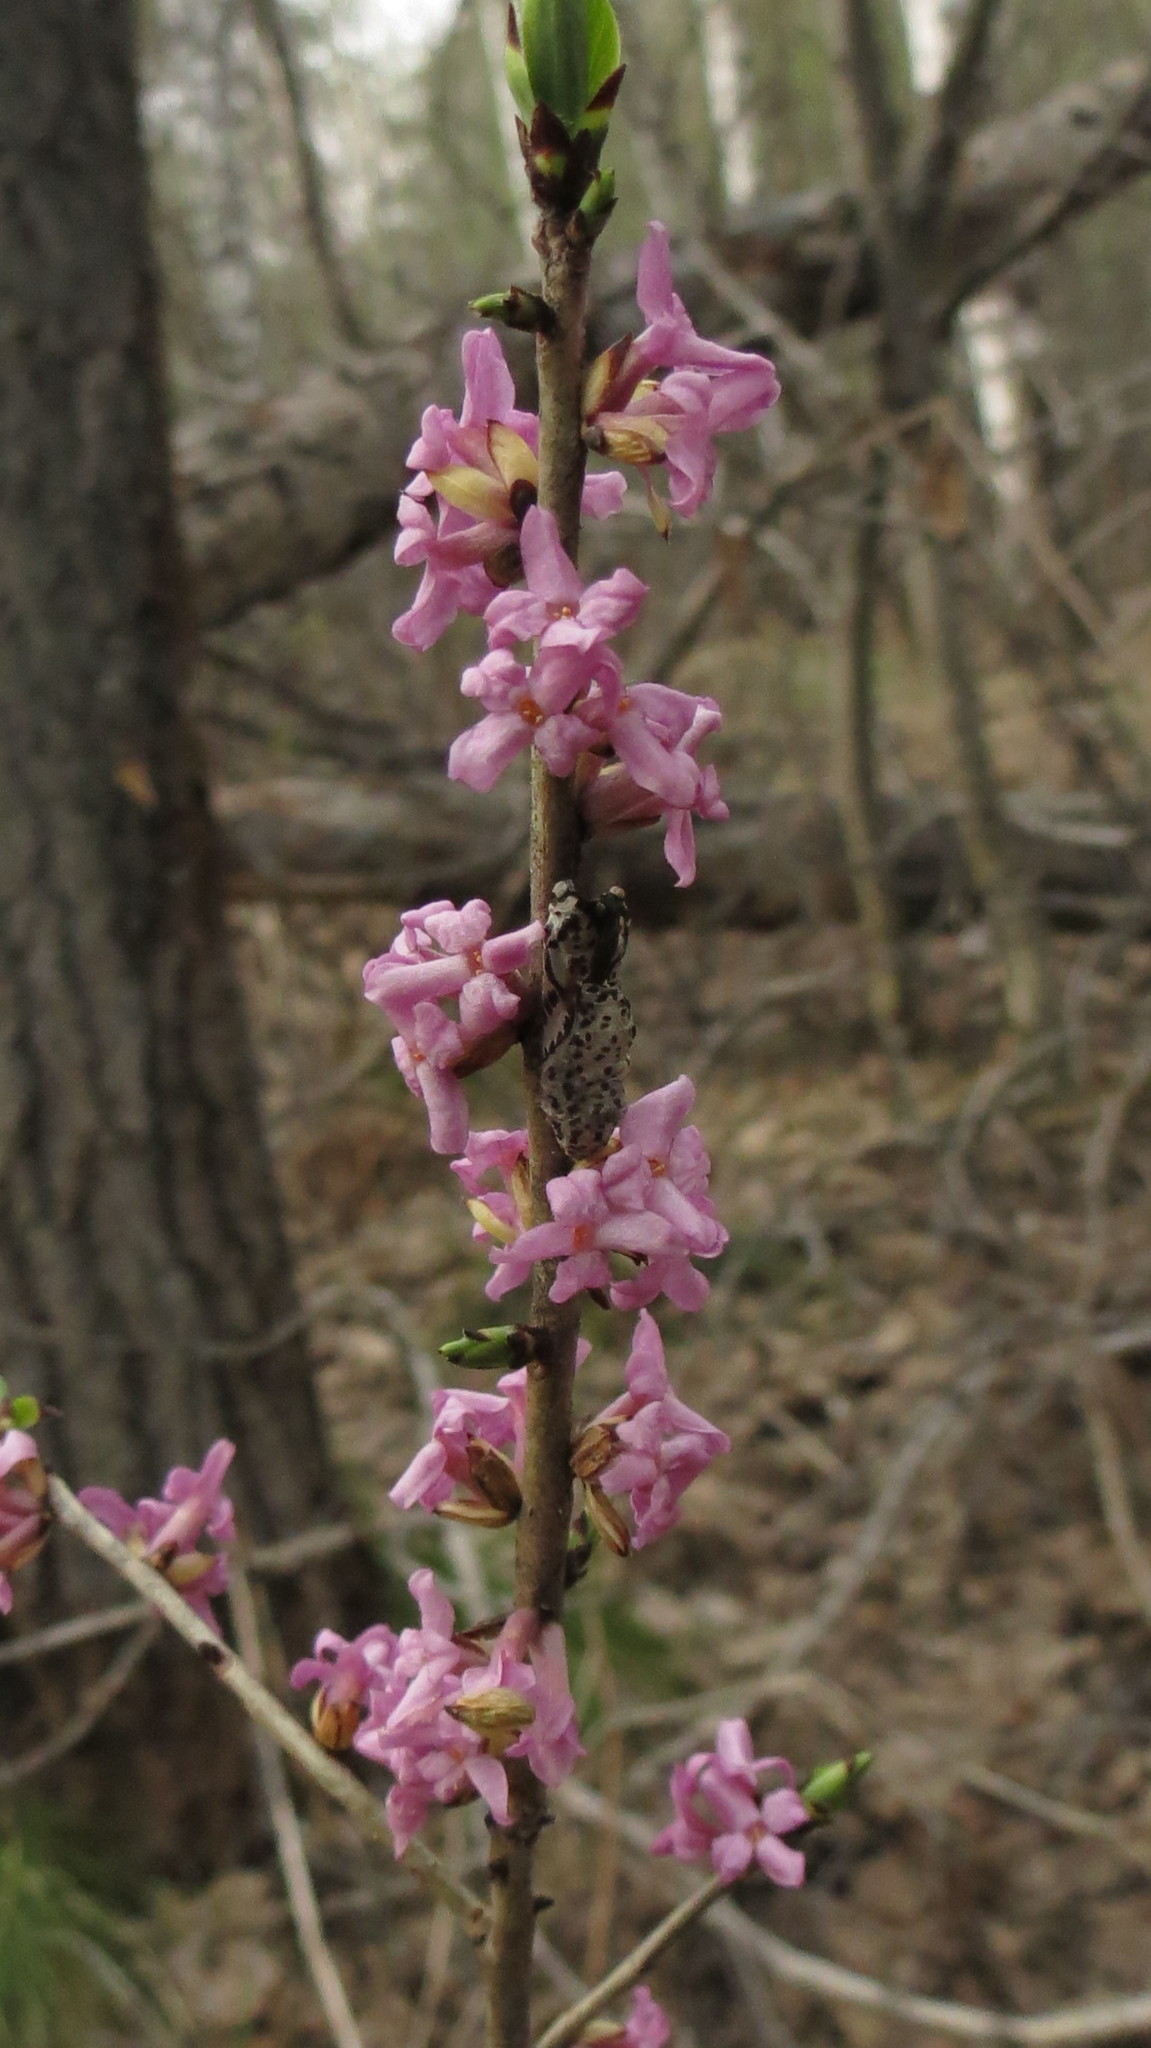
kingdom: Plantae
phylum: Tracheophyta
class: Magnoliopsida
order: Malvales
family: Thymelaeaceae
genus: Daphne
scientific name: Daphne mezereum
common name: Mezereon
